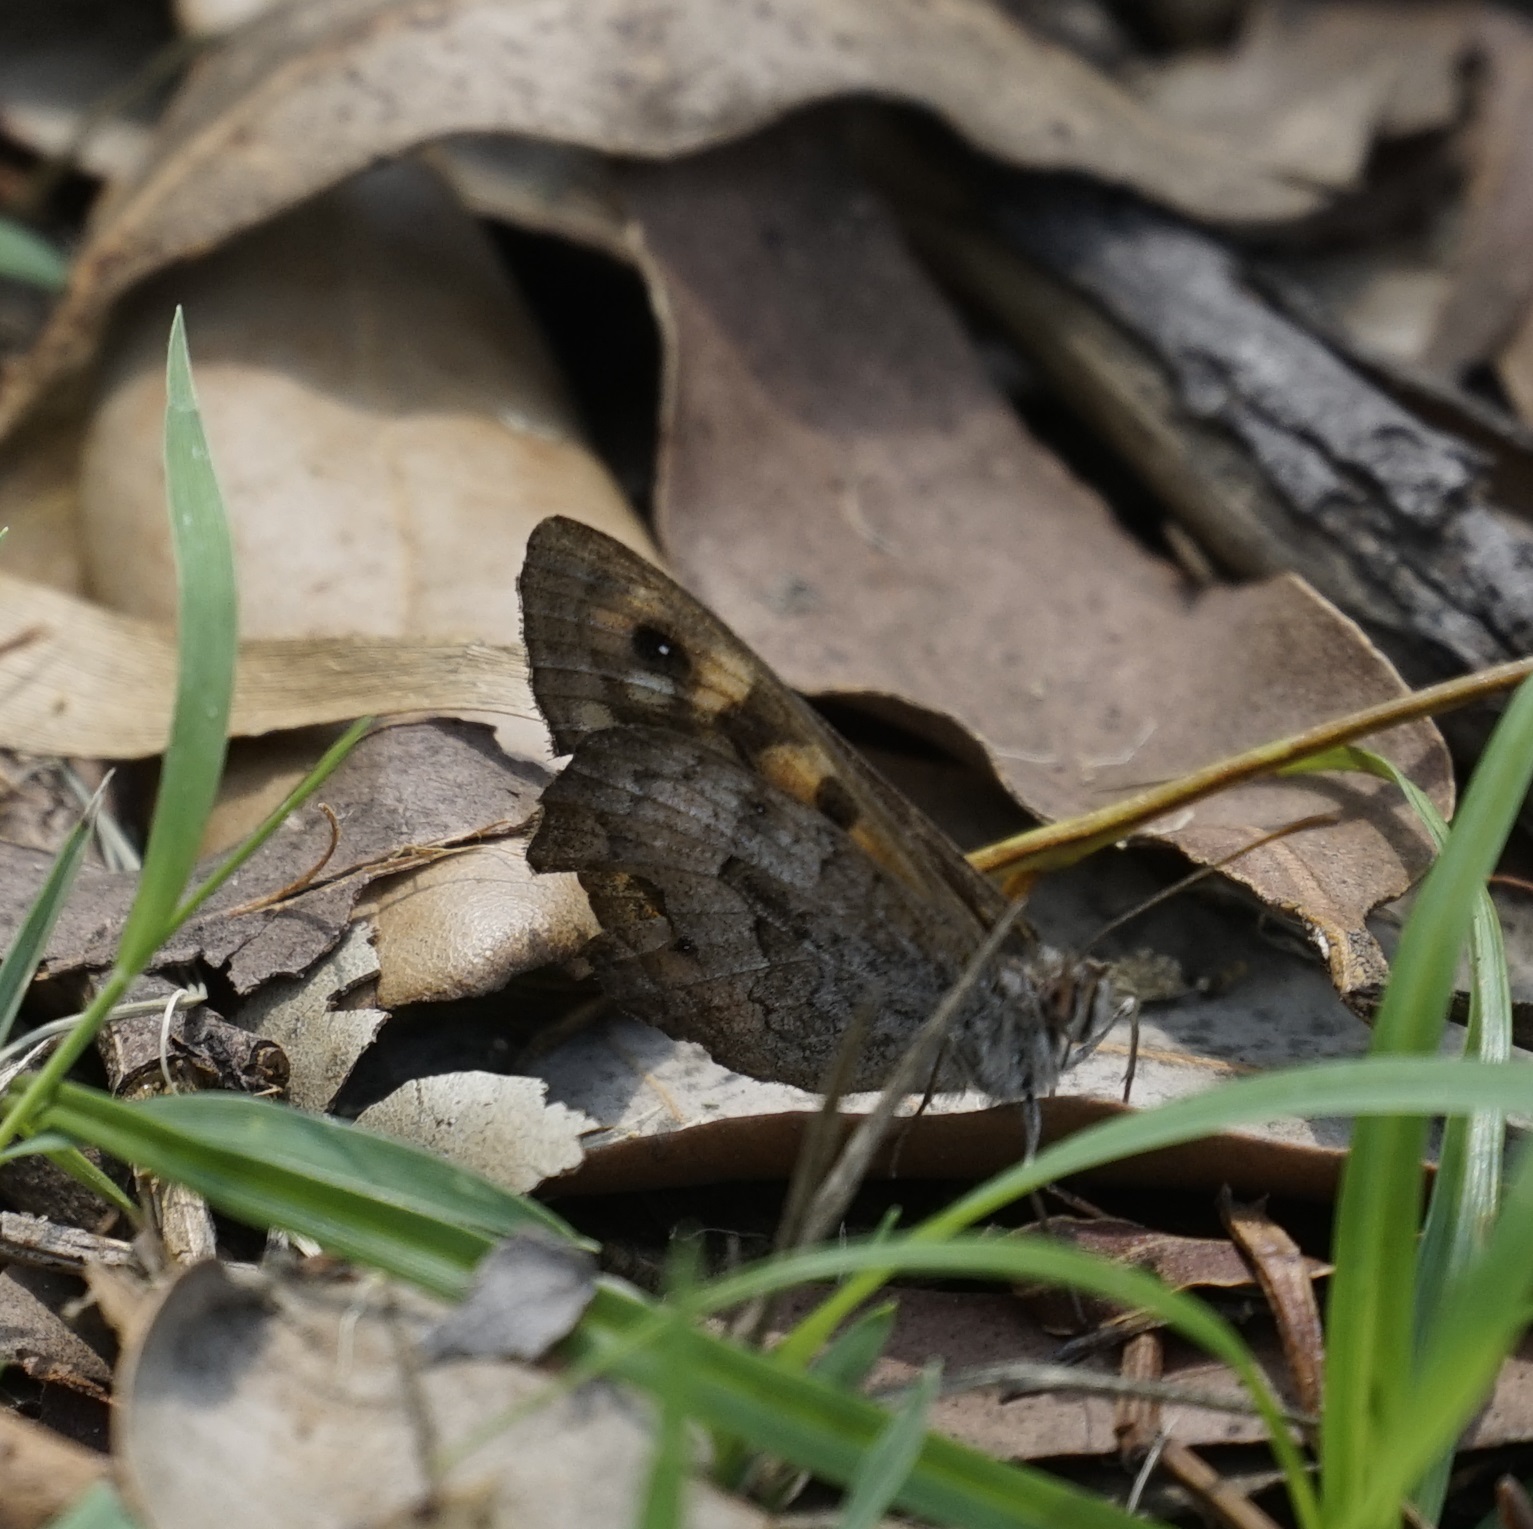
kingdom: Animalia
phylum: Arthropoda
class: Insecta
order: Lepidoptera
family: Nymphalidae
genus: Geitoneura
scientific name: Geitoneura klugii
